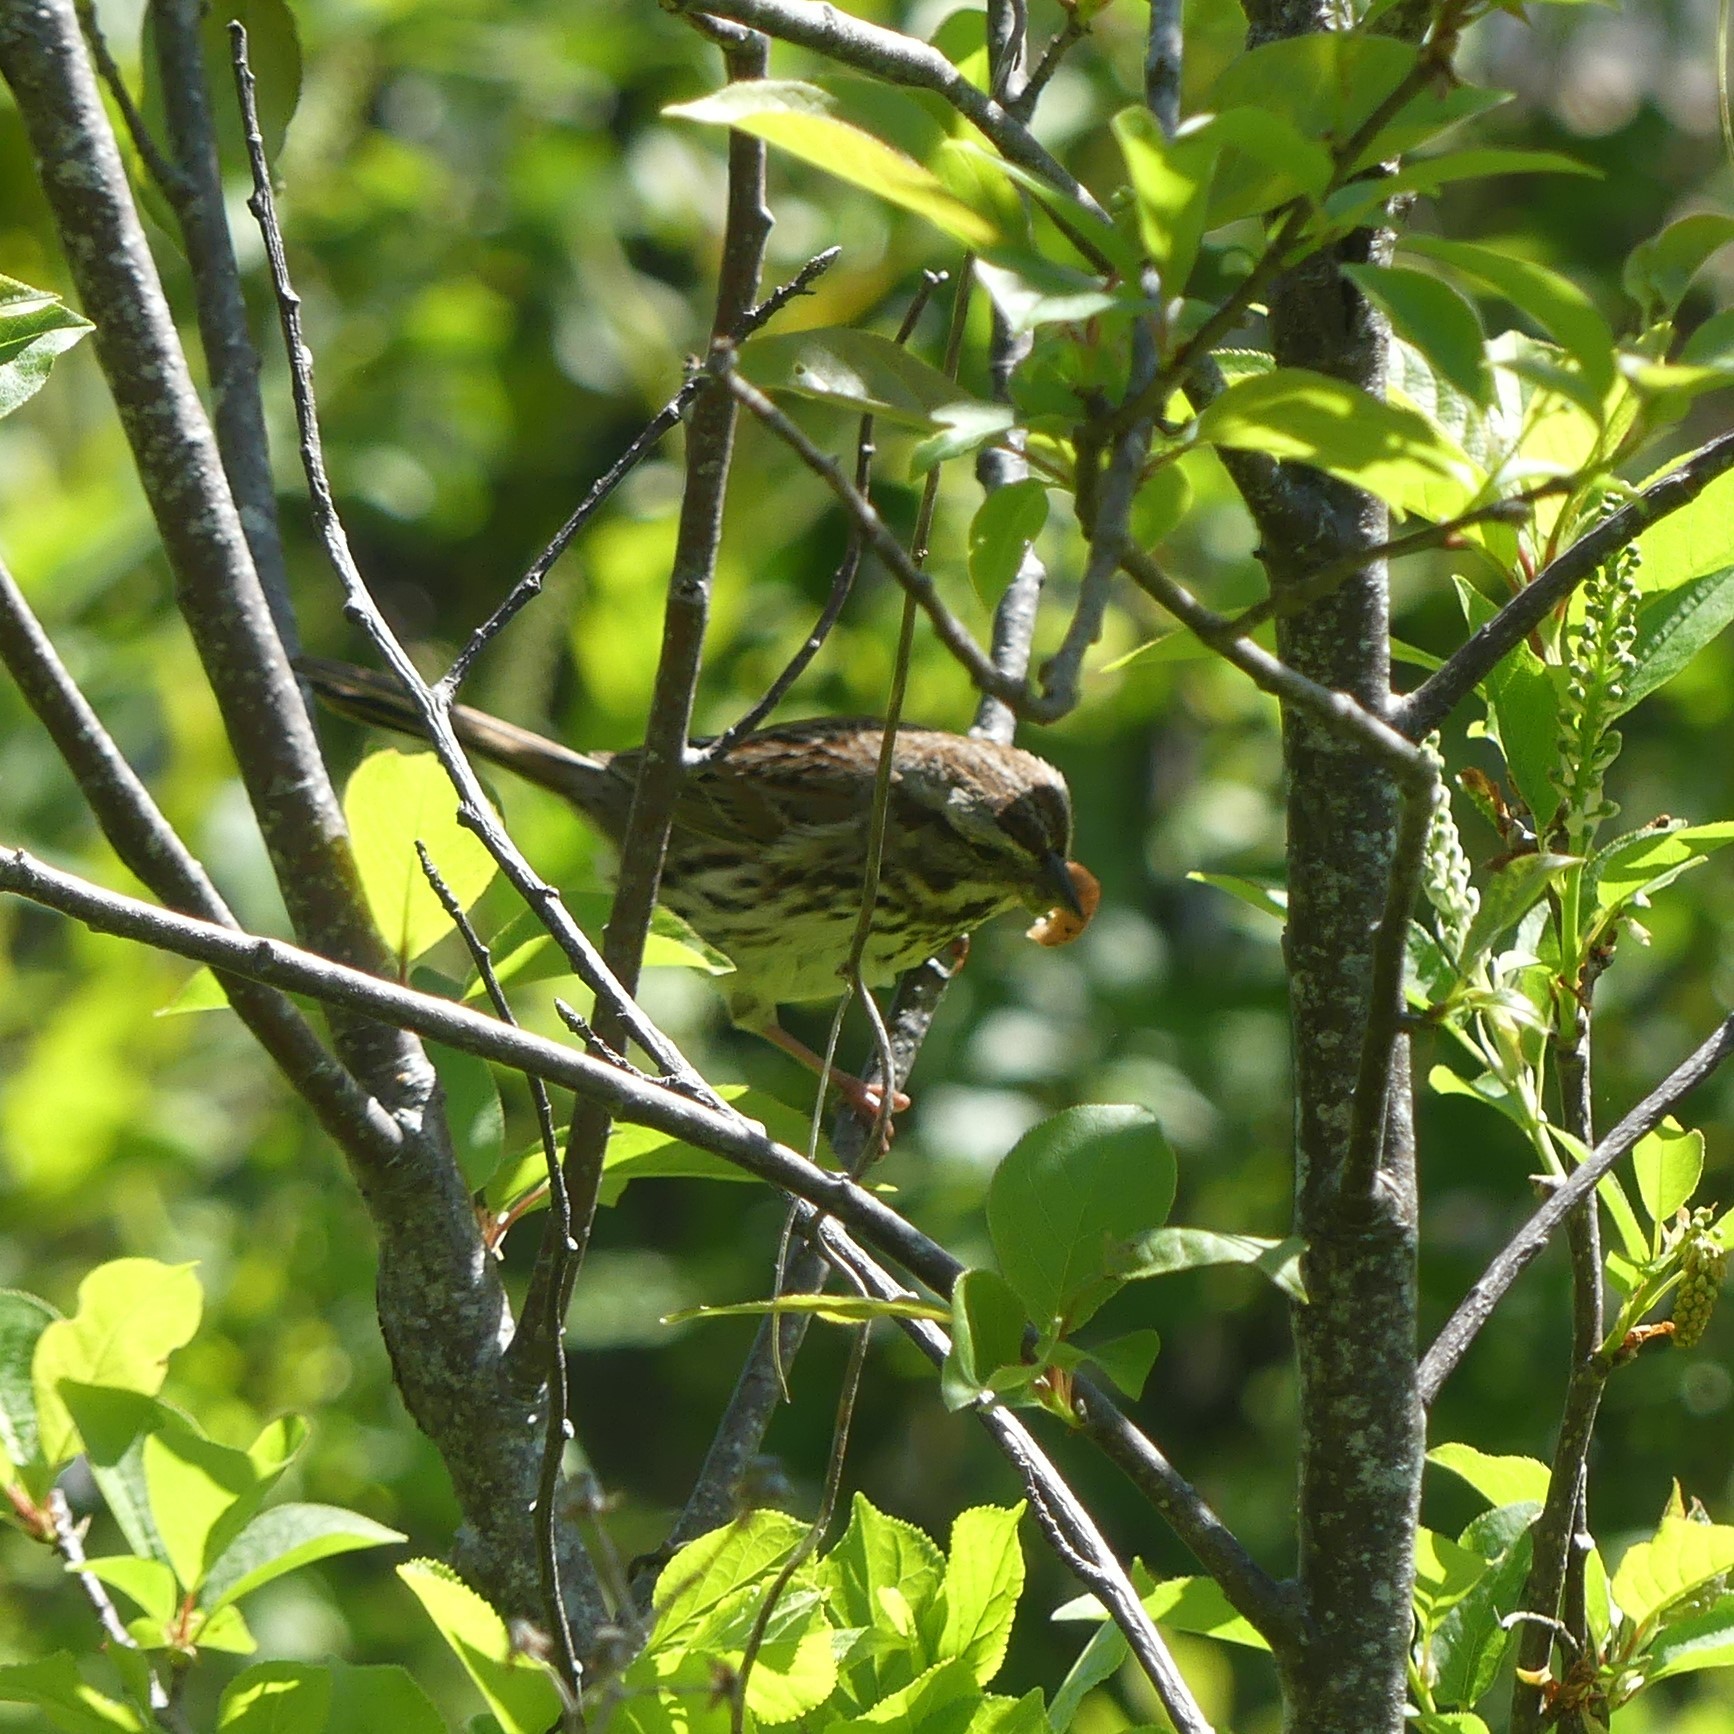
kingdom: Animalia
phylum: Chordata
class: Aves
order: Passeriformes
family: Passerellidae
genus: Melospiza
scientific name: Melospiza melodia
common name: Song sparrow
